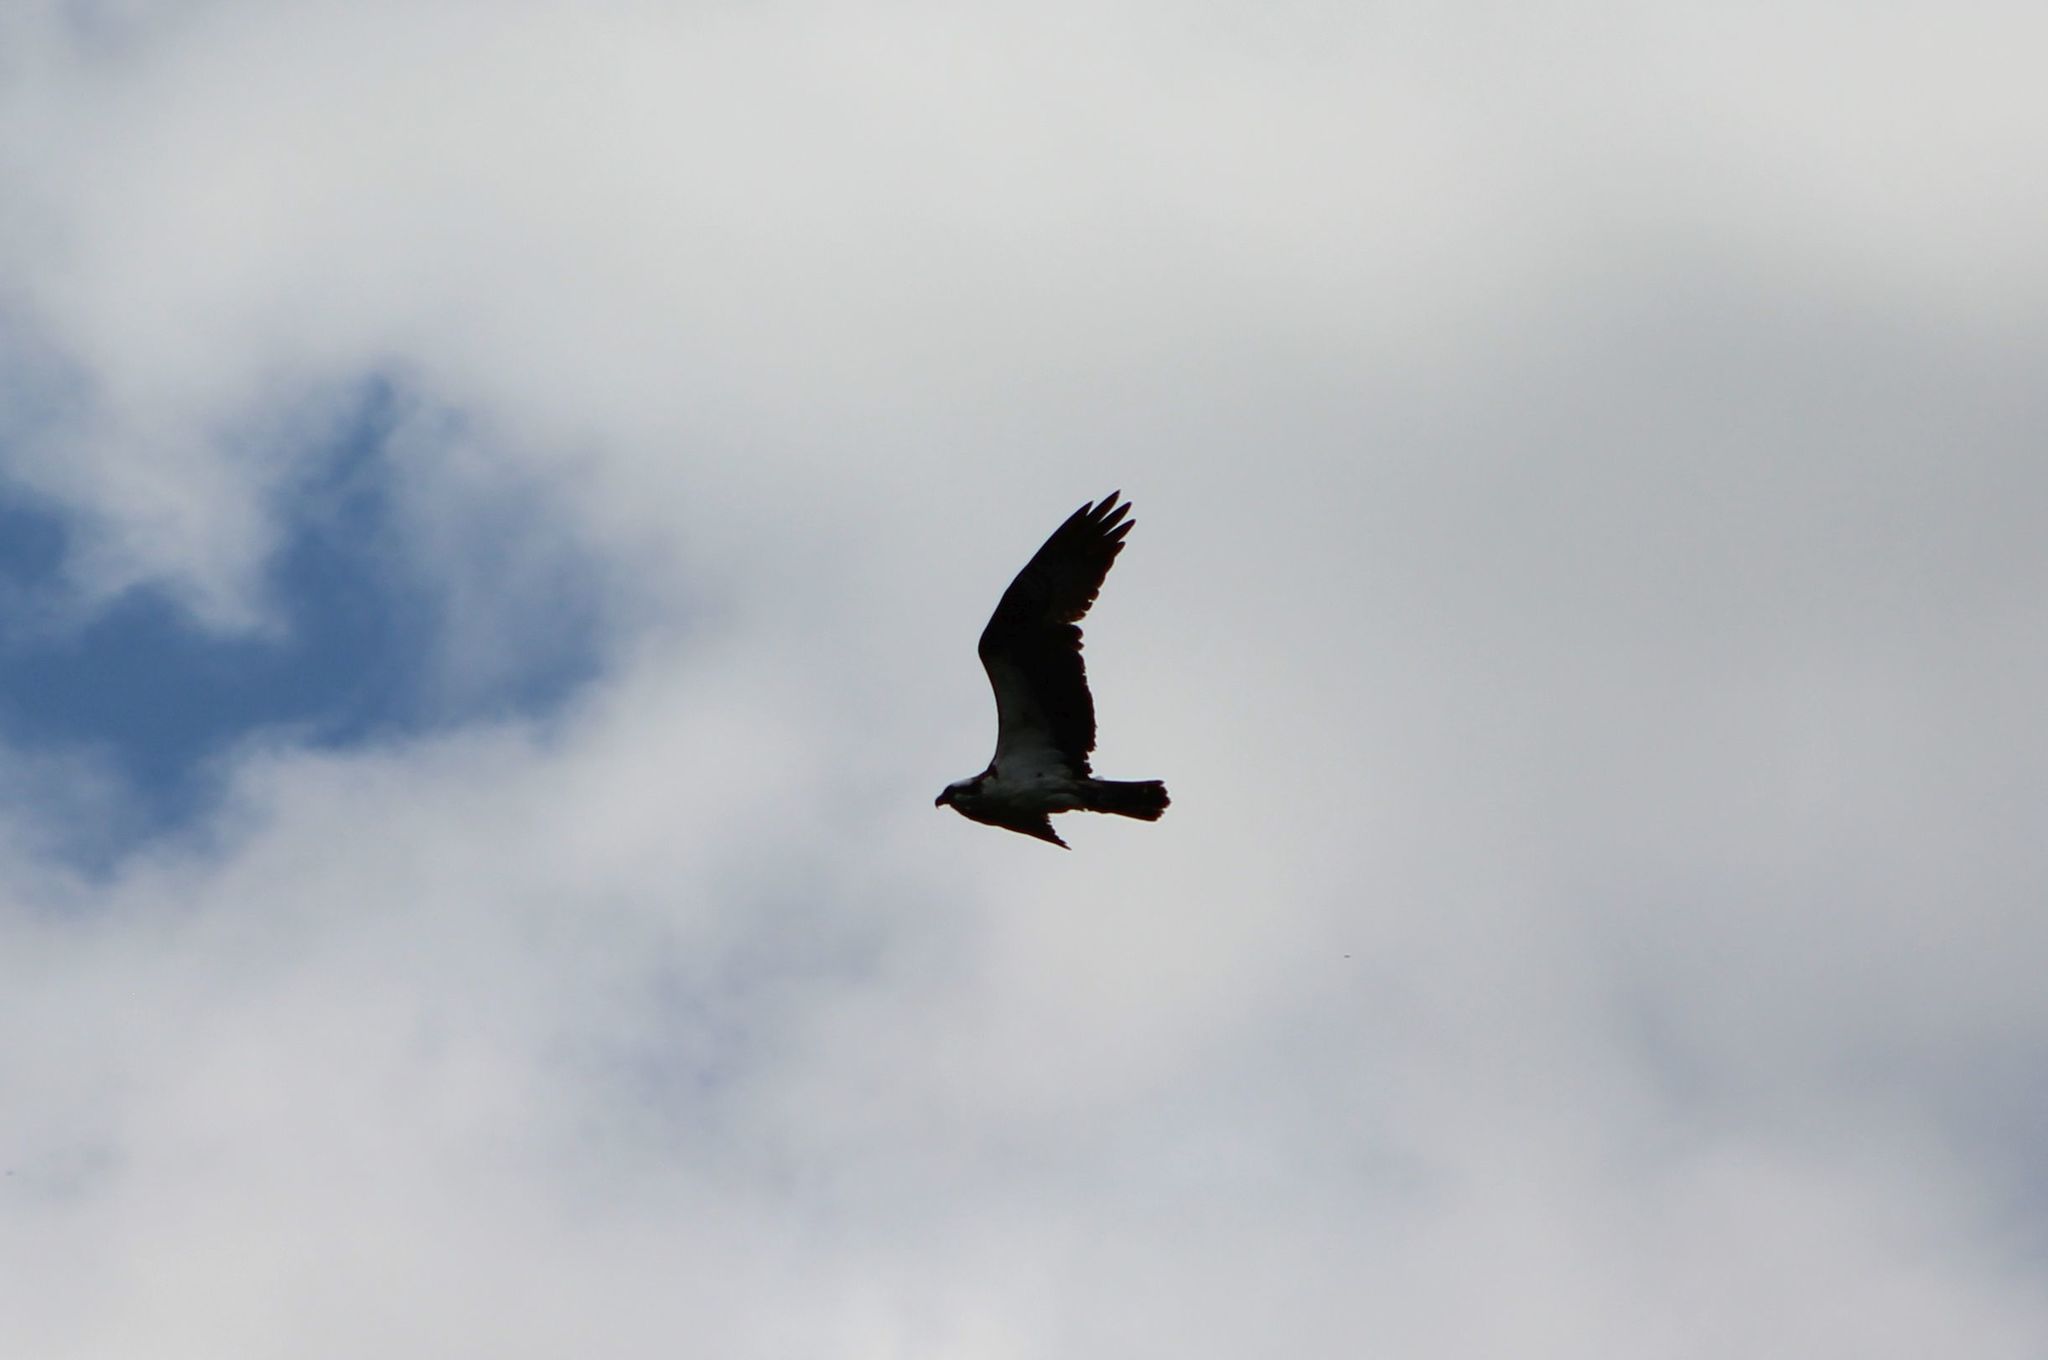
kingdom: Animalia
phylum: Chordata
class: Aves
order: Accipitriformes
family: Pandionidae
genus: Pandion
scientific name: Pandion haliaetus
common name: Osprey
